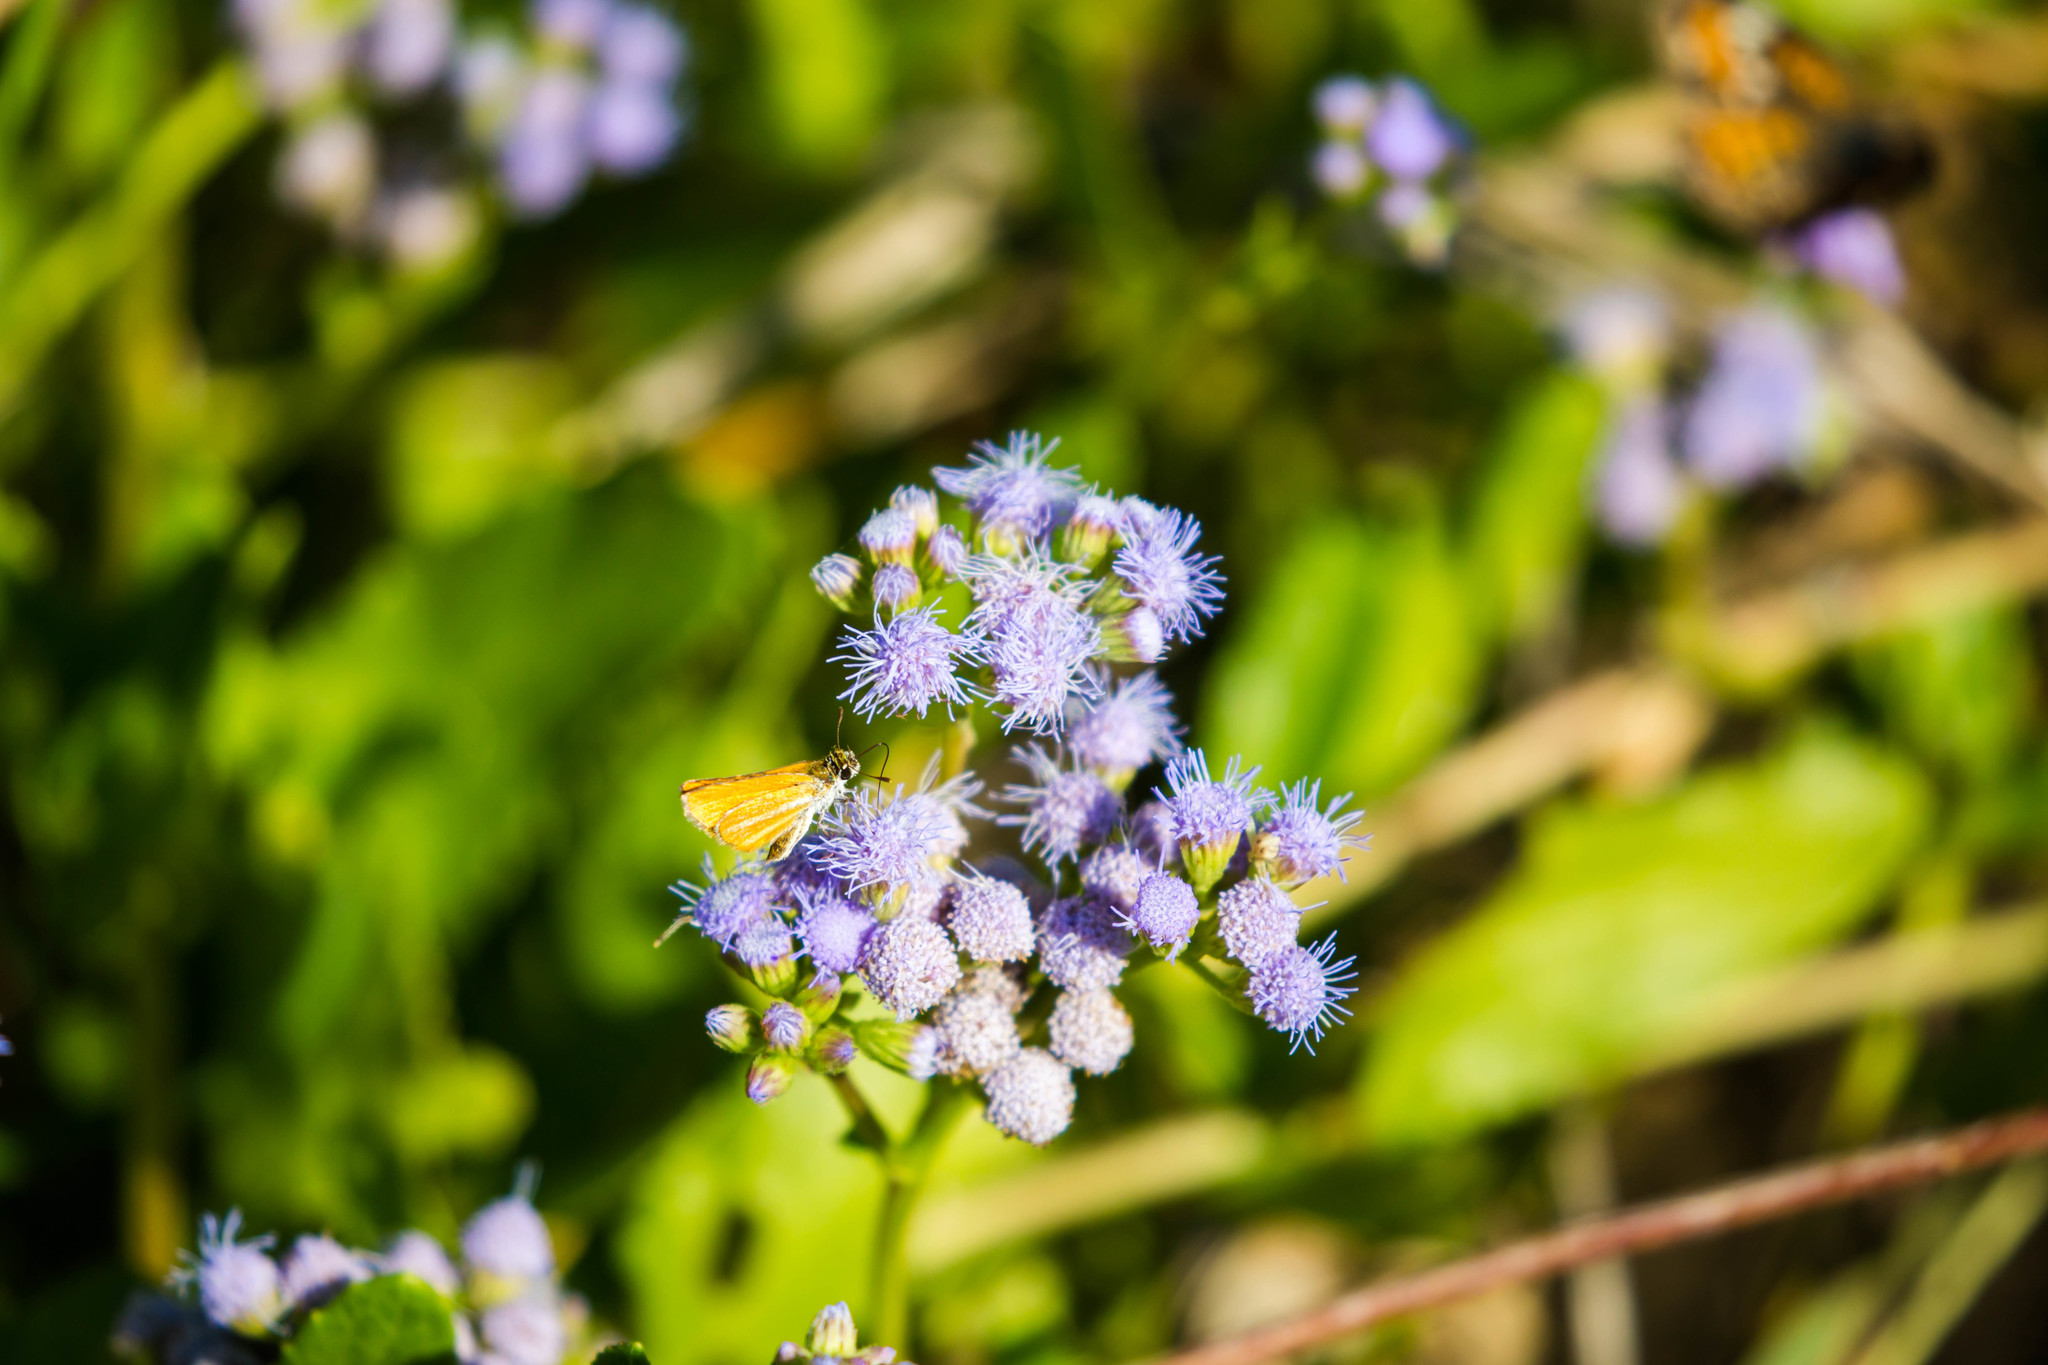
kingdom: Animalia
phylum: Arthropoda
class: Insecta
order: Lepidoptera
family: Hesperiidae
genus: Copaeodes
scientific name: Copaeodes minima
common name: Southern skipperling
